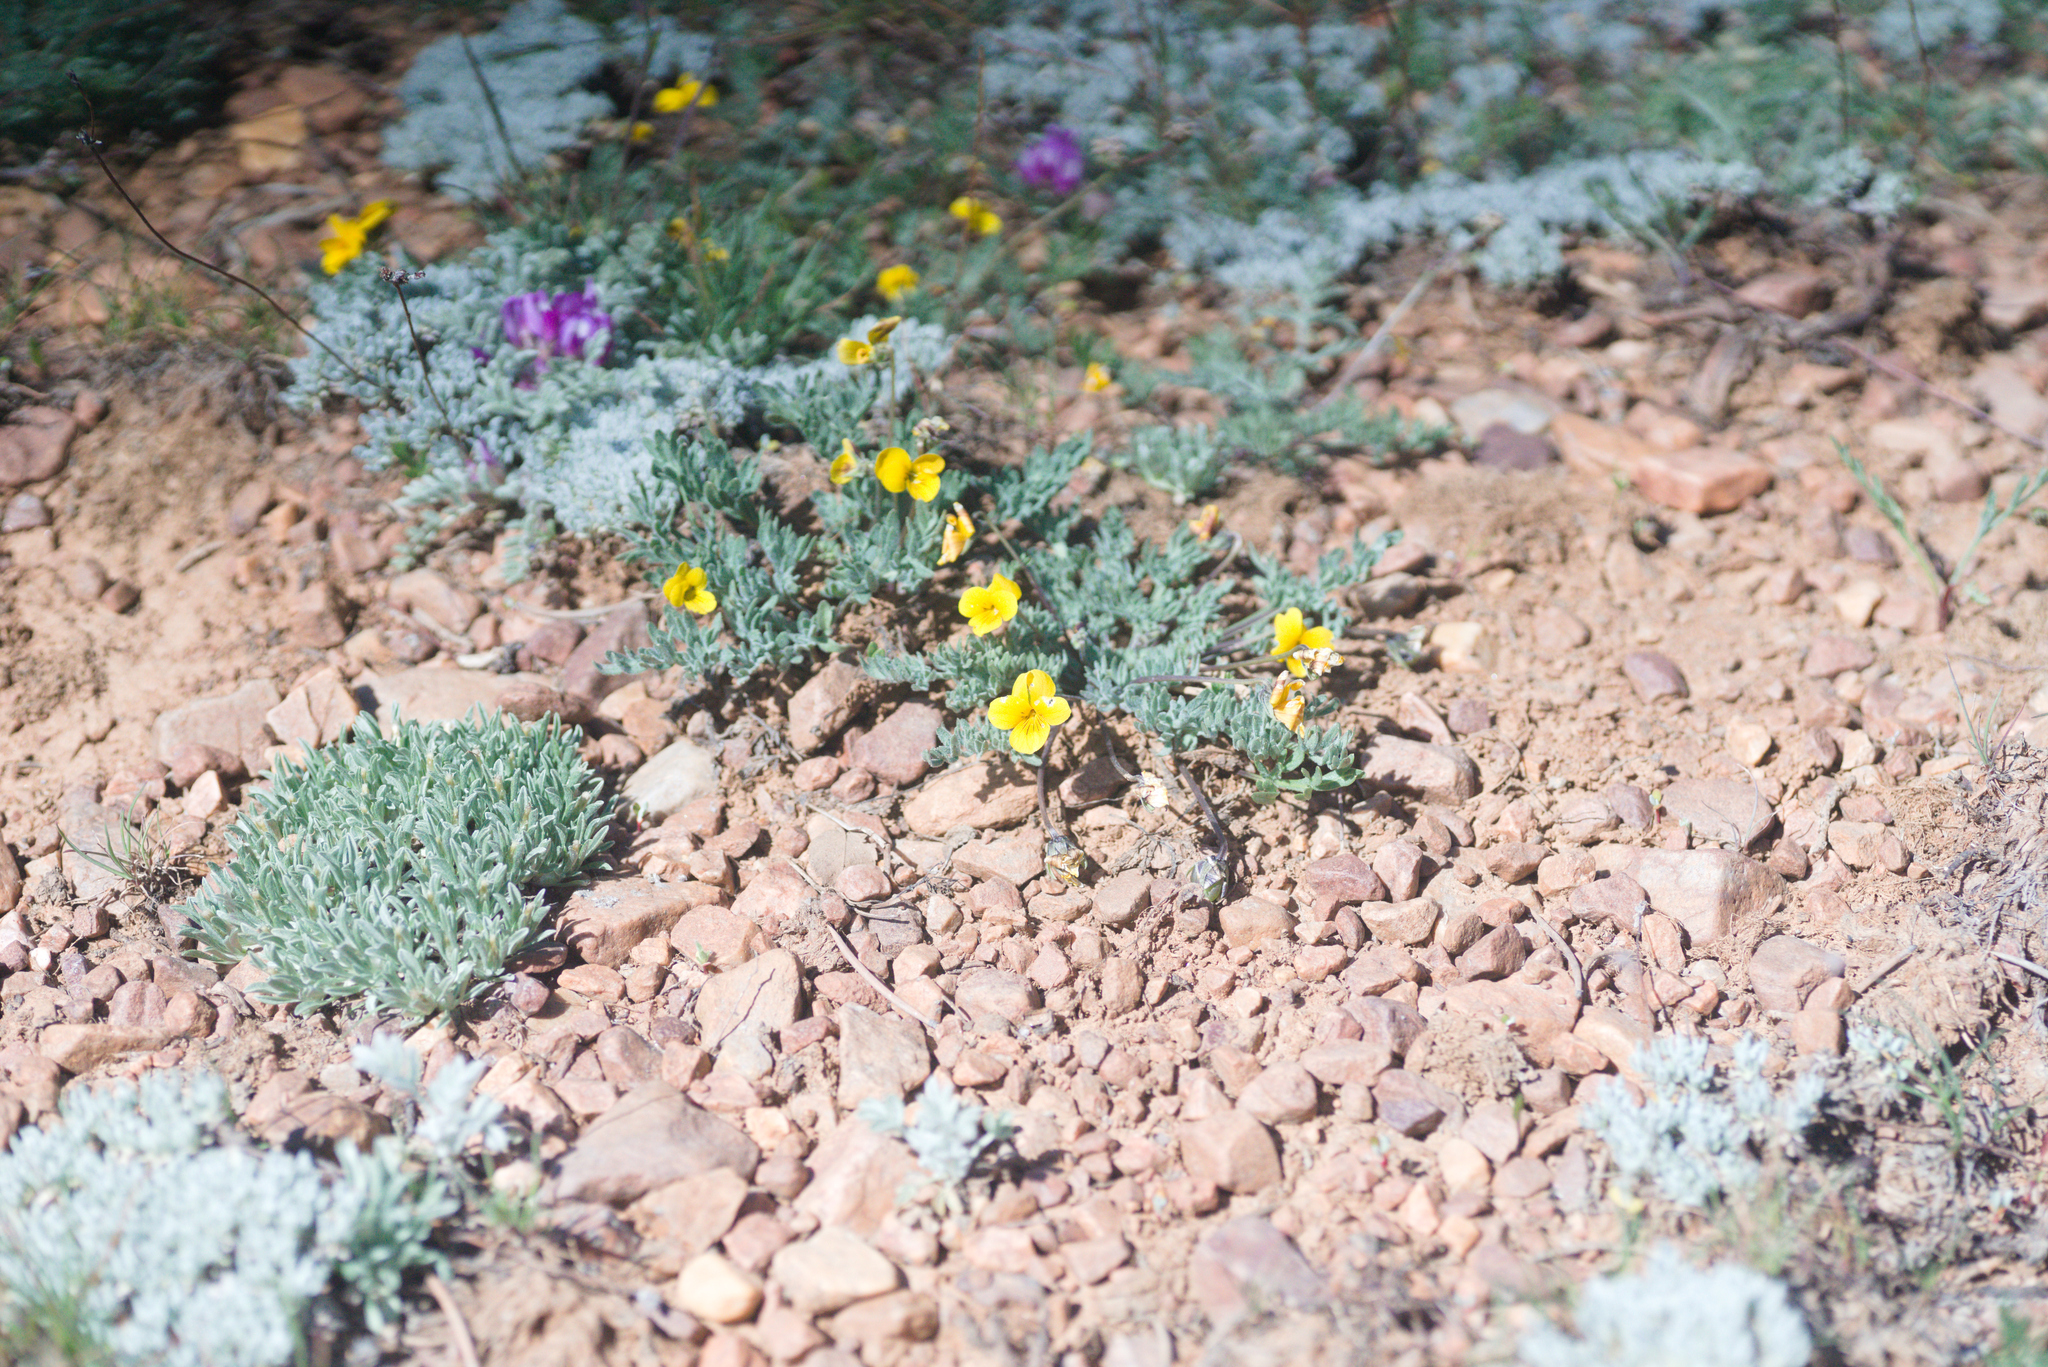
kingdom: Plantae
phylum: Tracheophyta
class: Magnoliopsida
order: Malpighiales
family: Violaceae
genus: Viola
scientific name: Viola douglasii
